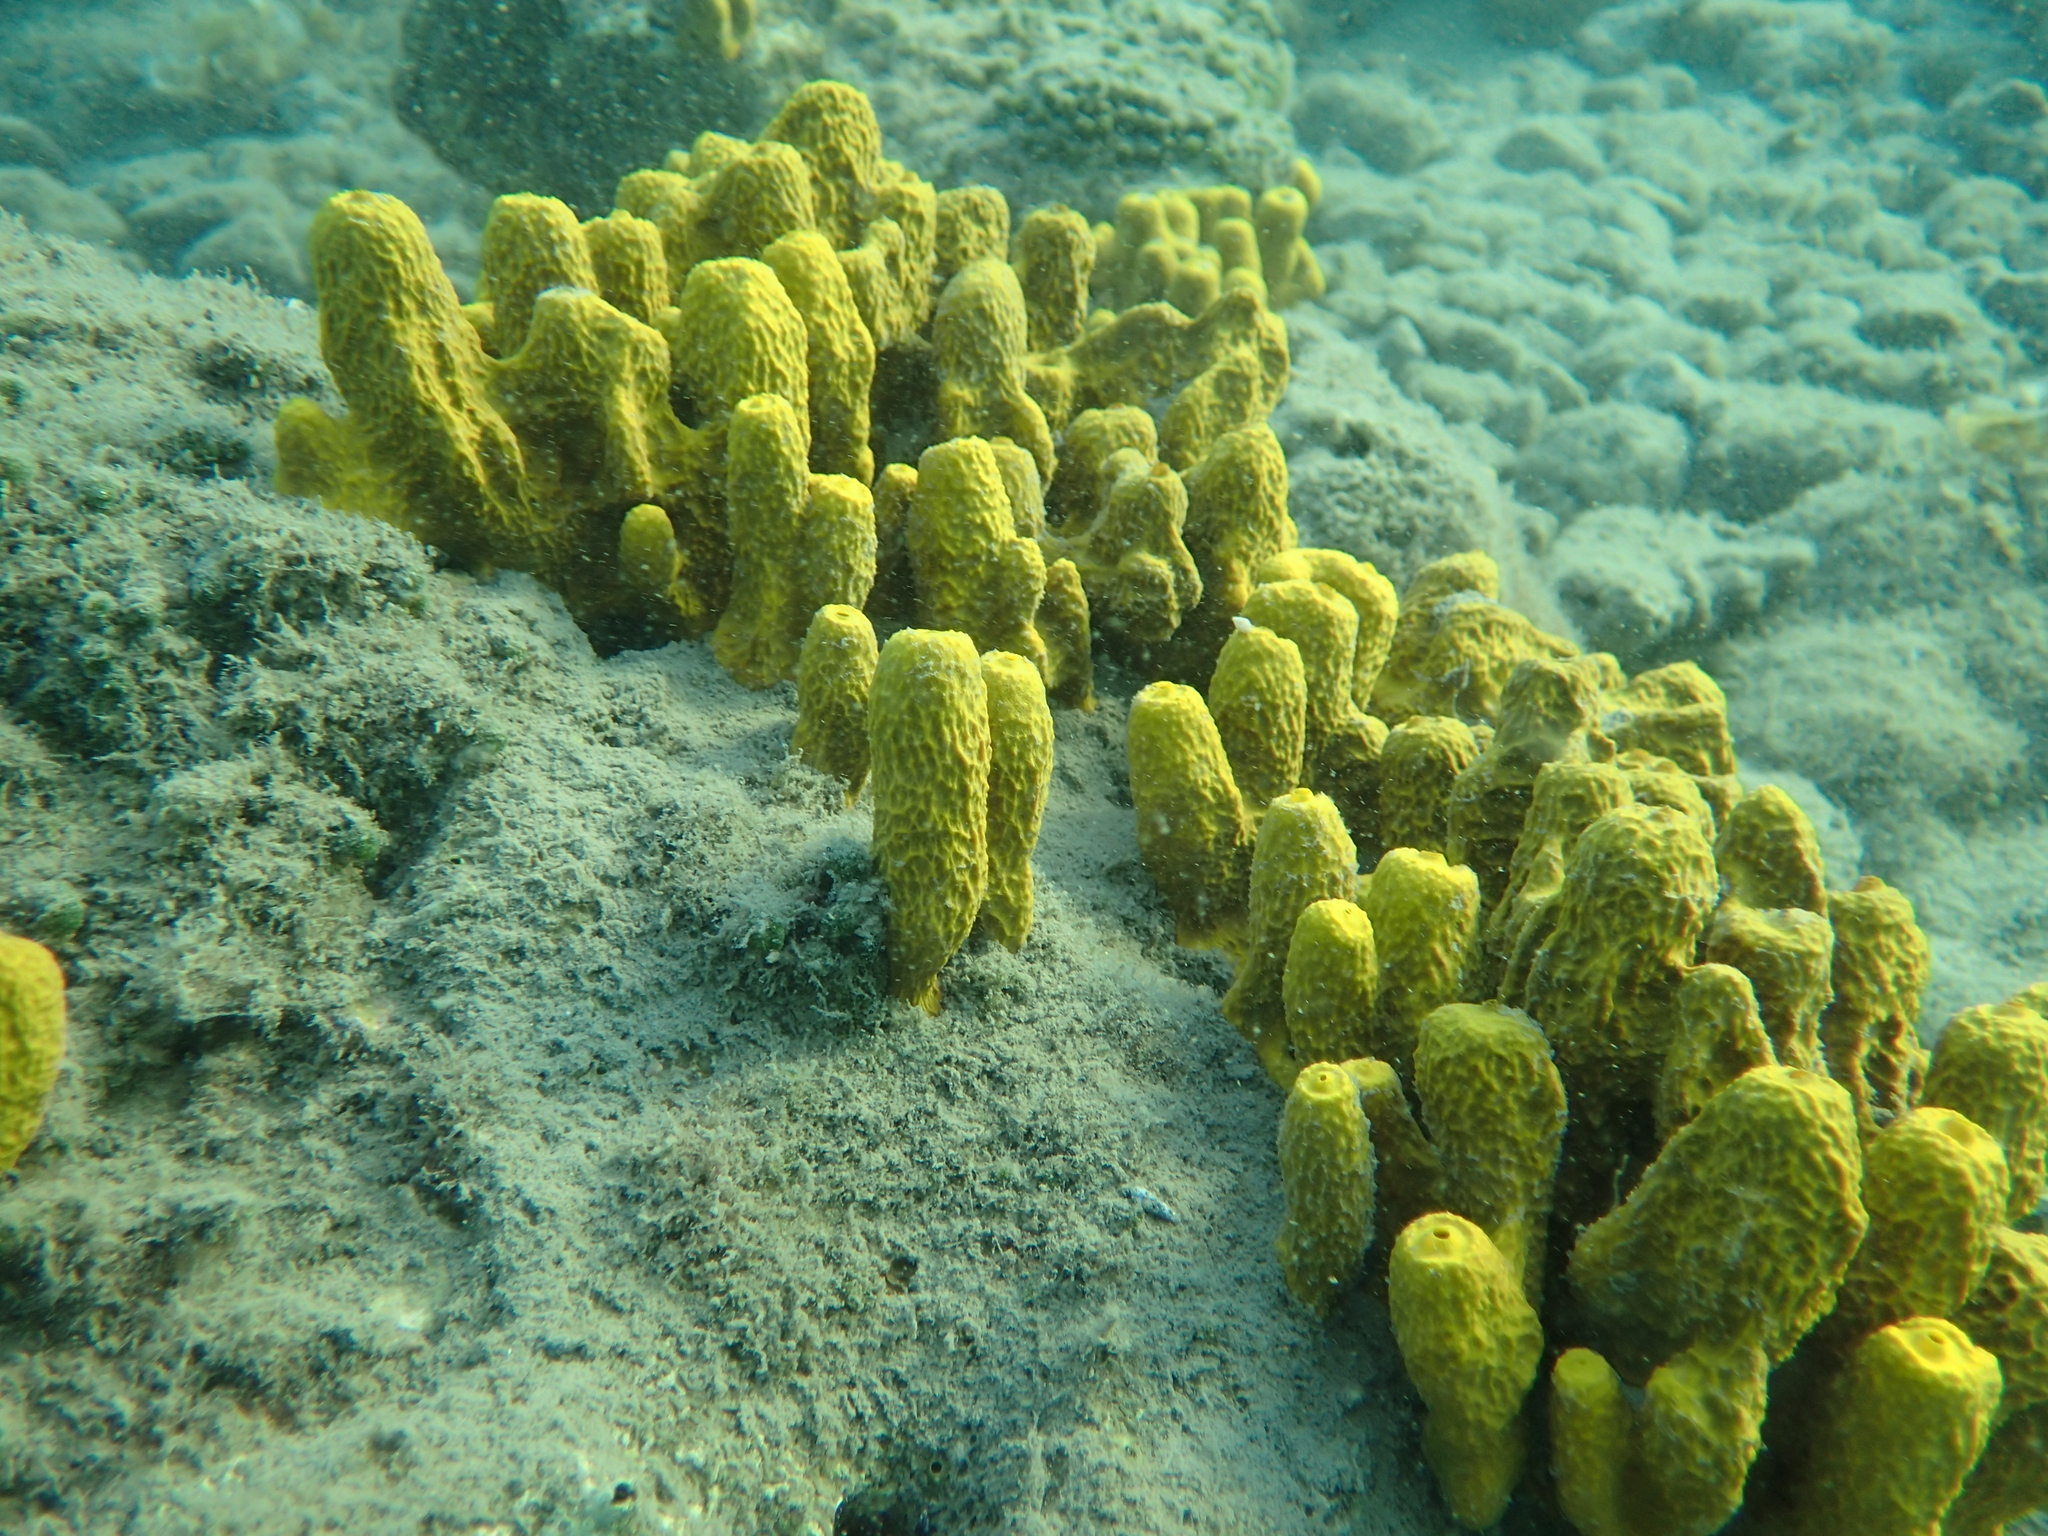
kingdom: Animalia
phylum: Porifera
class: Demospongiae
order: Verongiida
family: Aplysinidae
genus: Aplysina
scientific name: Aplysina aerophoba
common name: Aureate sponge
